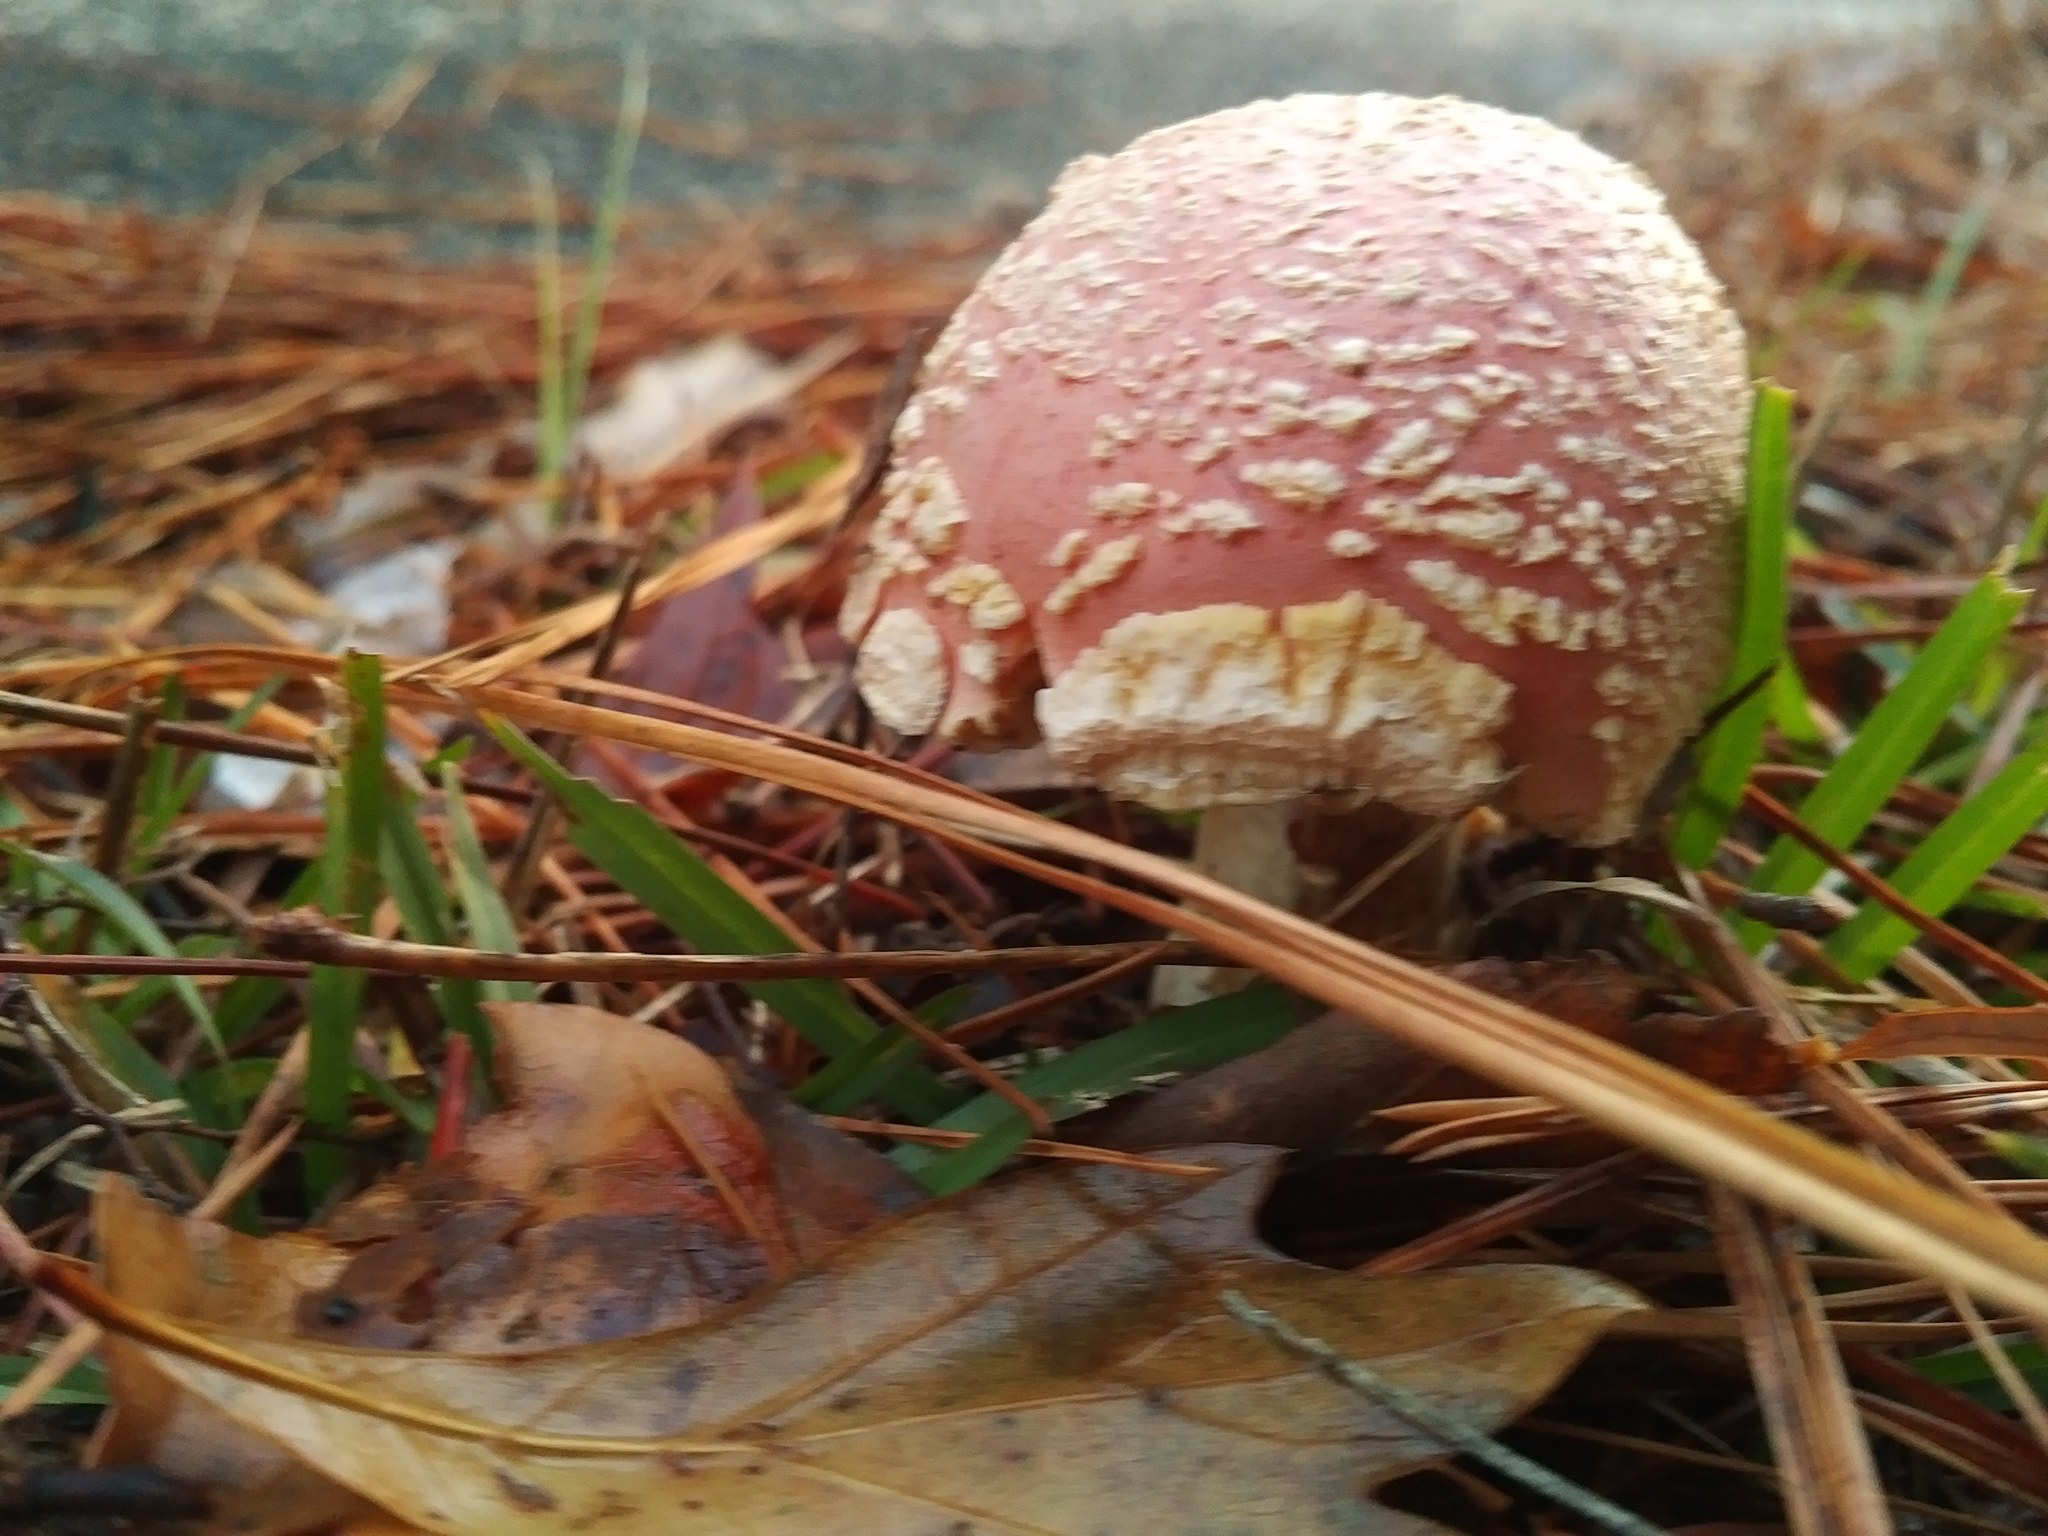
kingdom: Fungi
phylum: Basidiomycota
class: Agaricomycetes
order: Agaricales
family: Amanitaceae
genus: Amanita
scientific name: Amanita persicina
